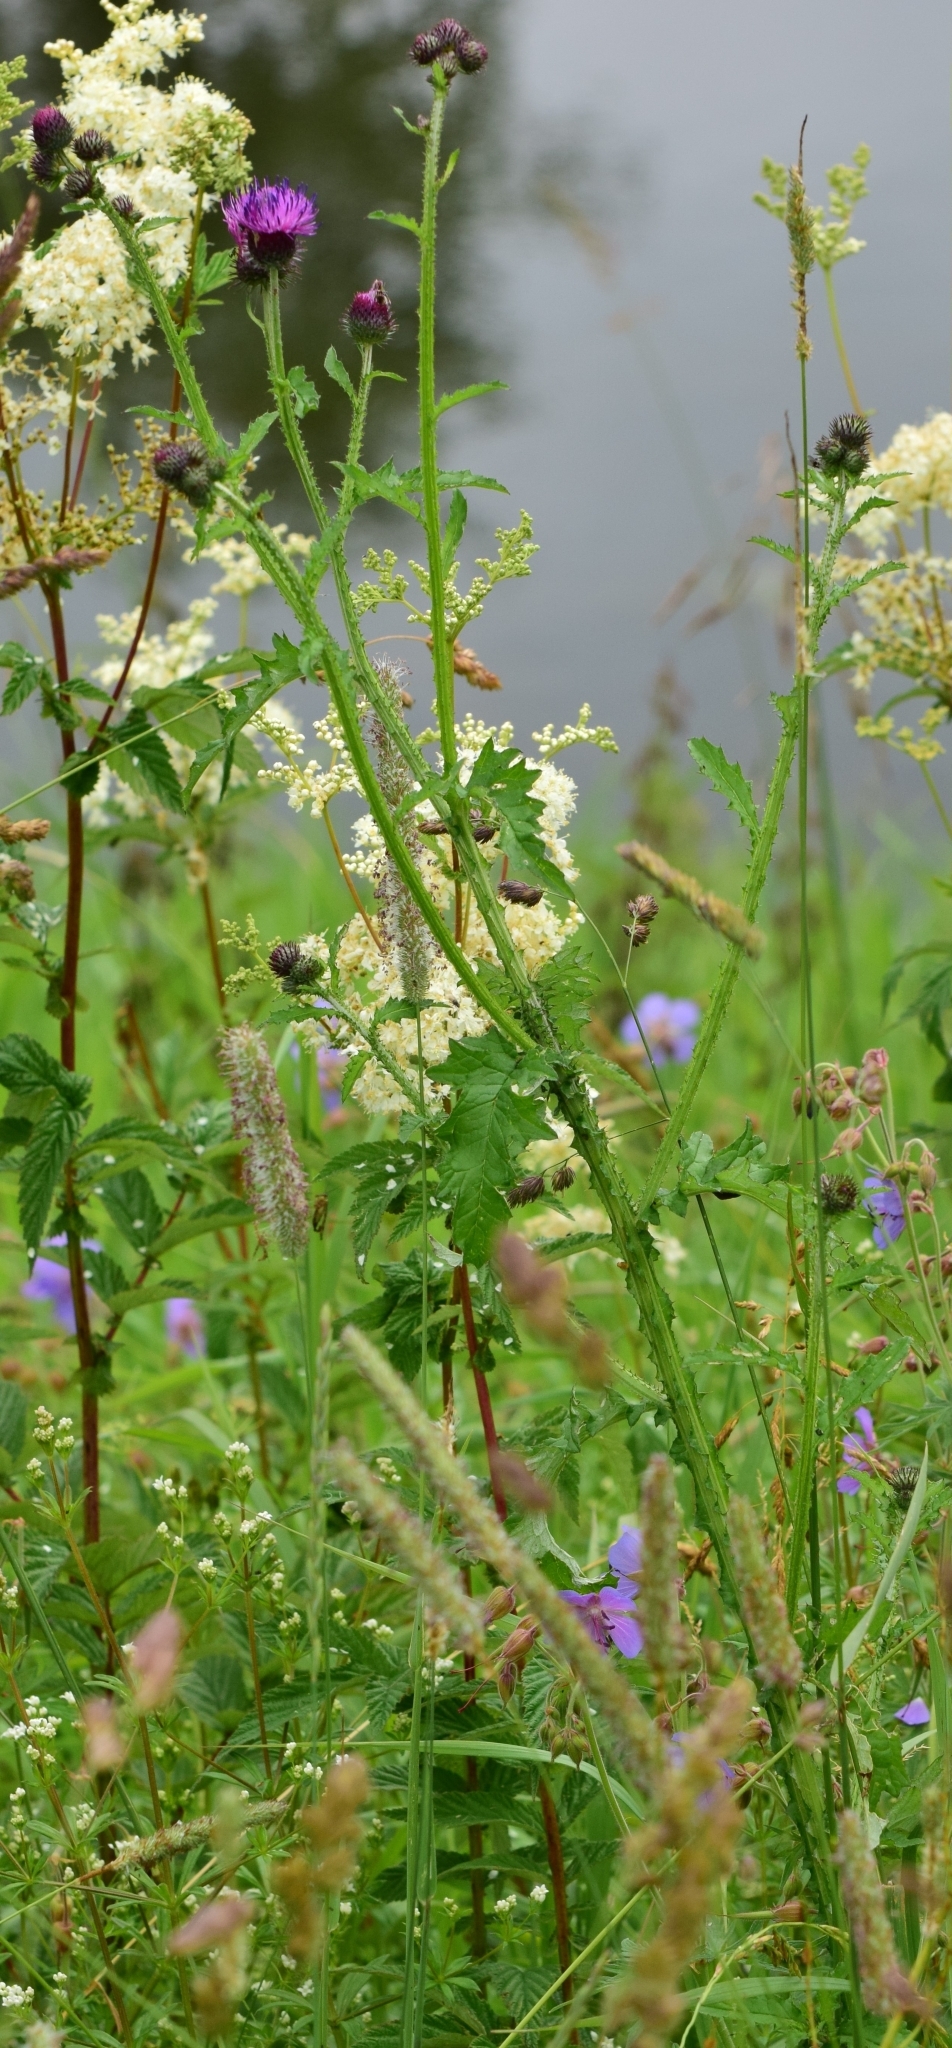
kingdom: Plantae
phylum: Tracheophyta
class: Magnoliopsida
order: Asterales
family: Asteraceae
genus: Carduus
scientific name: Carduus crispus
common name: Welted thistle
